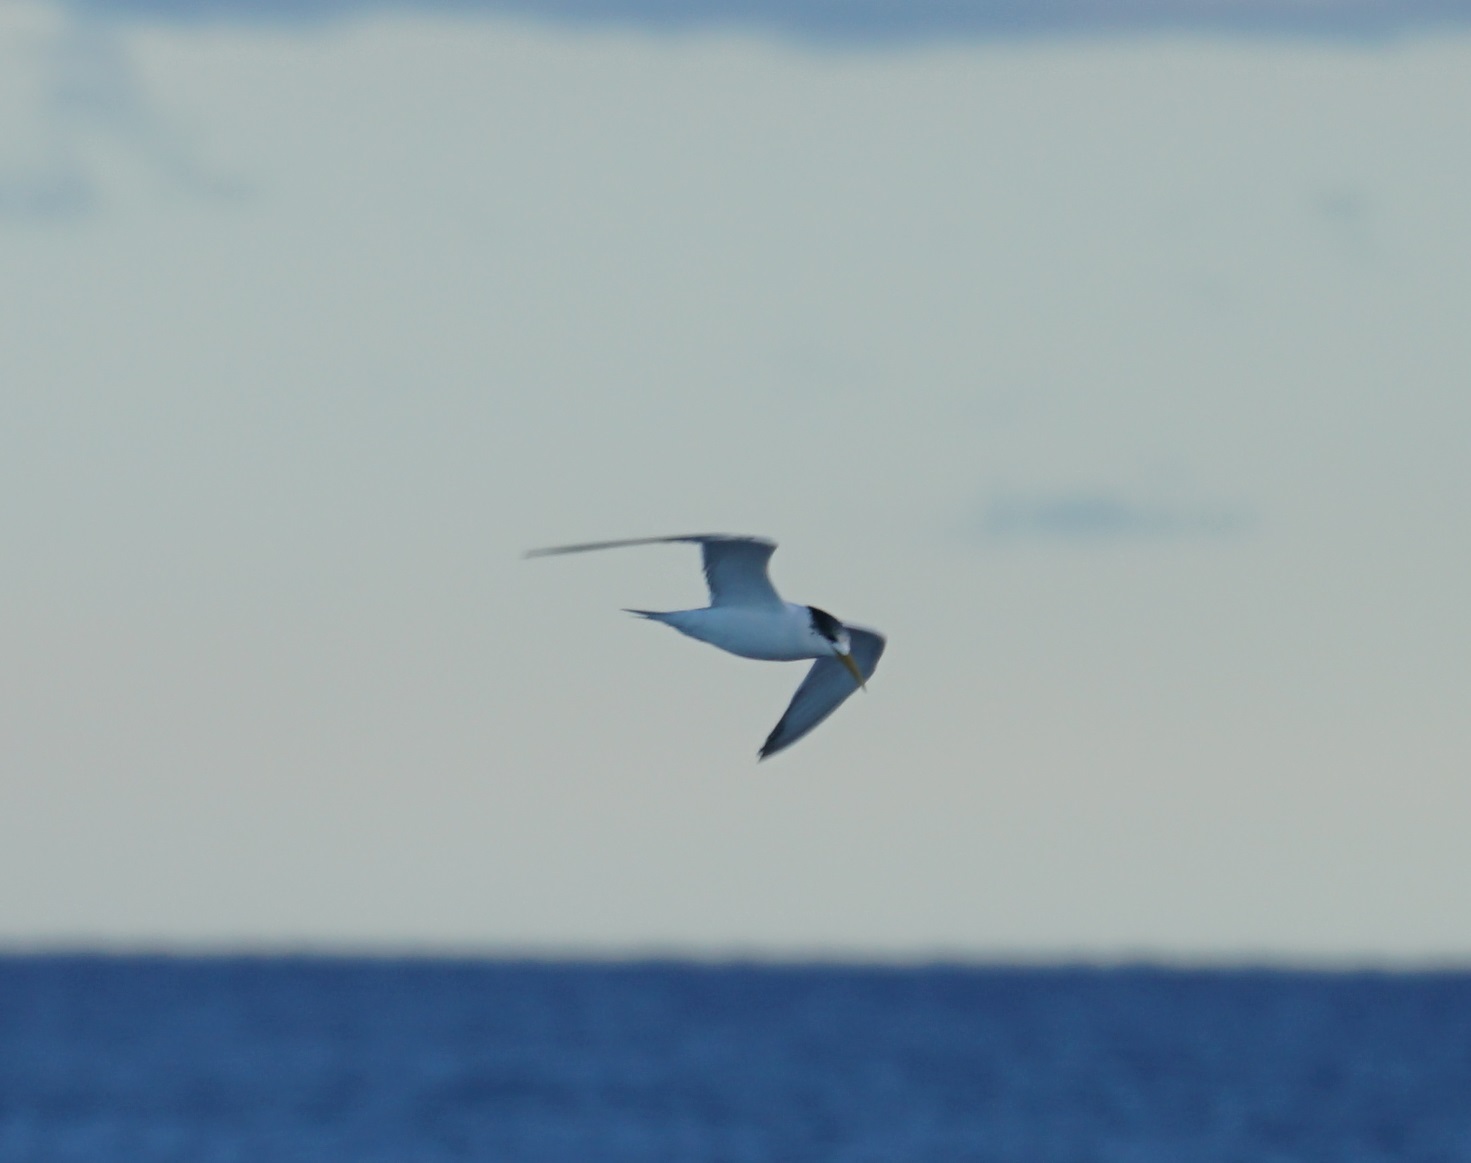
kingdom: Animalia
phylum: Chordata
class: Aves
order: Charadriiformes
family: Laridae
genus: Thalasseus
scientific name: Thalasseus bergii
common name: Greater crested tern
